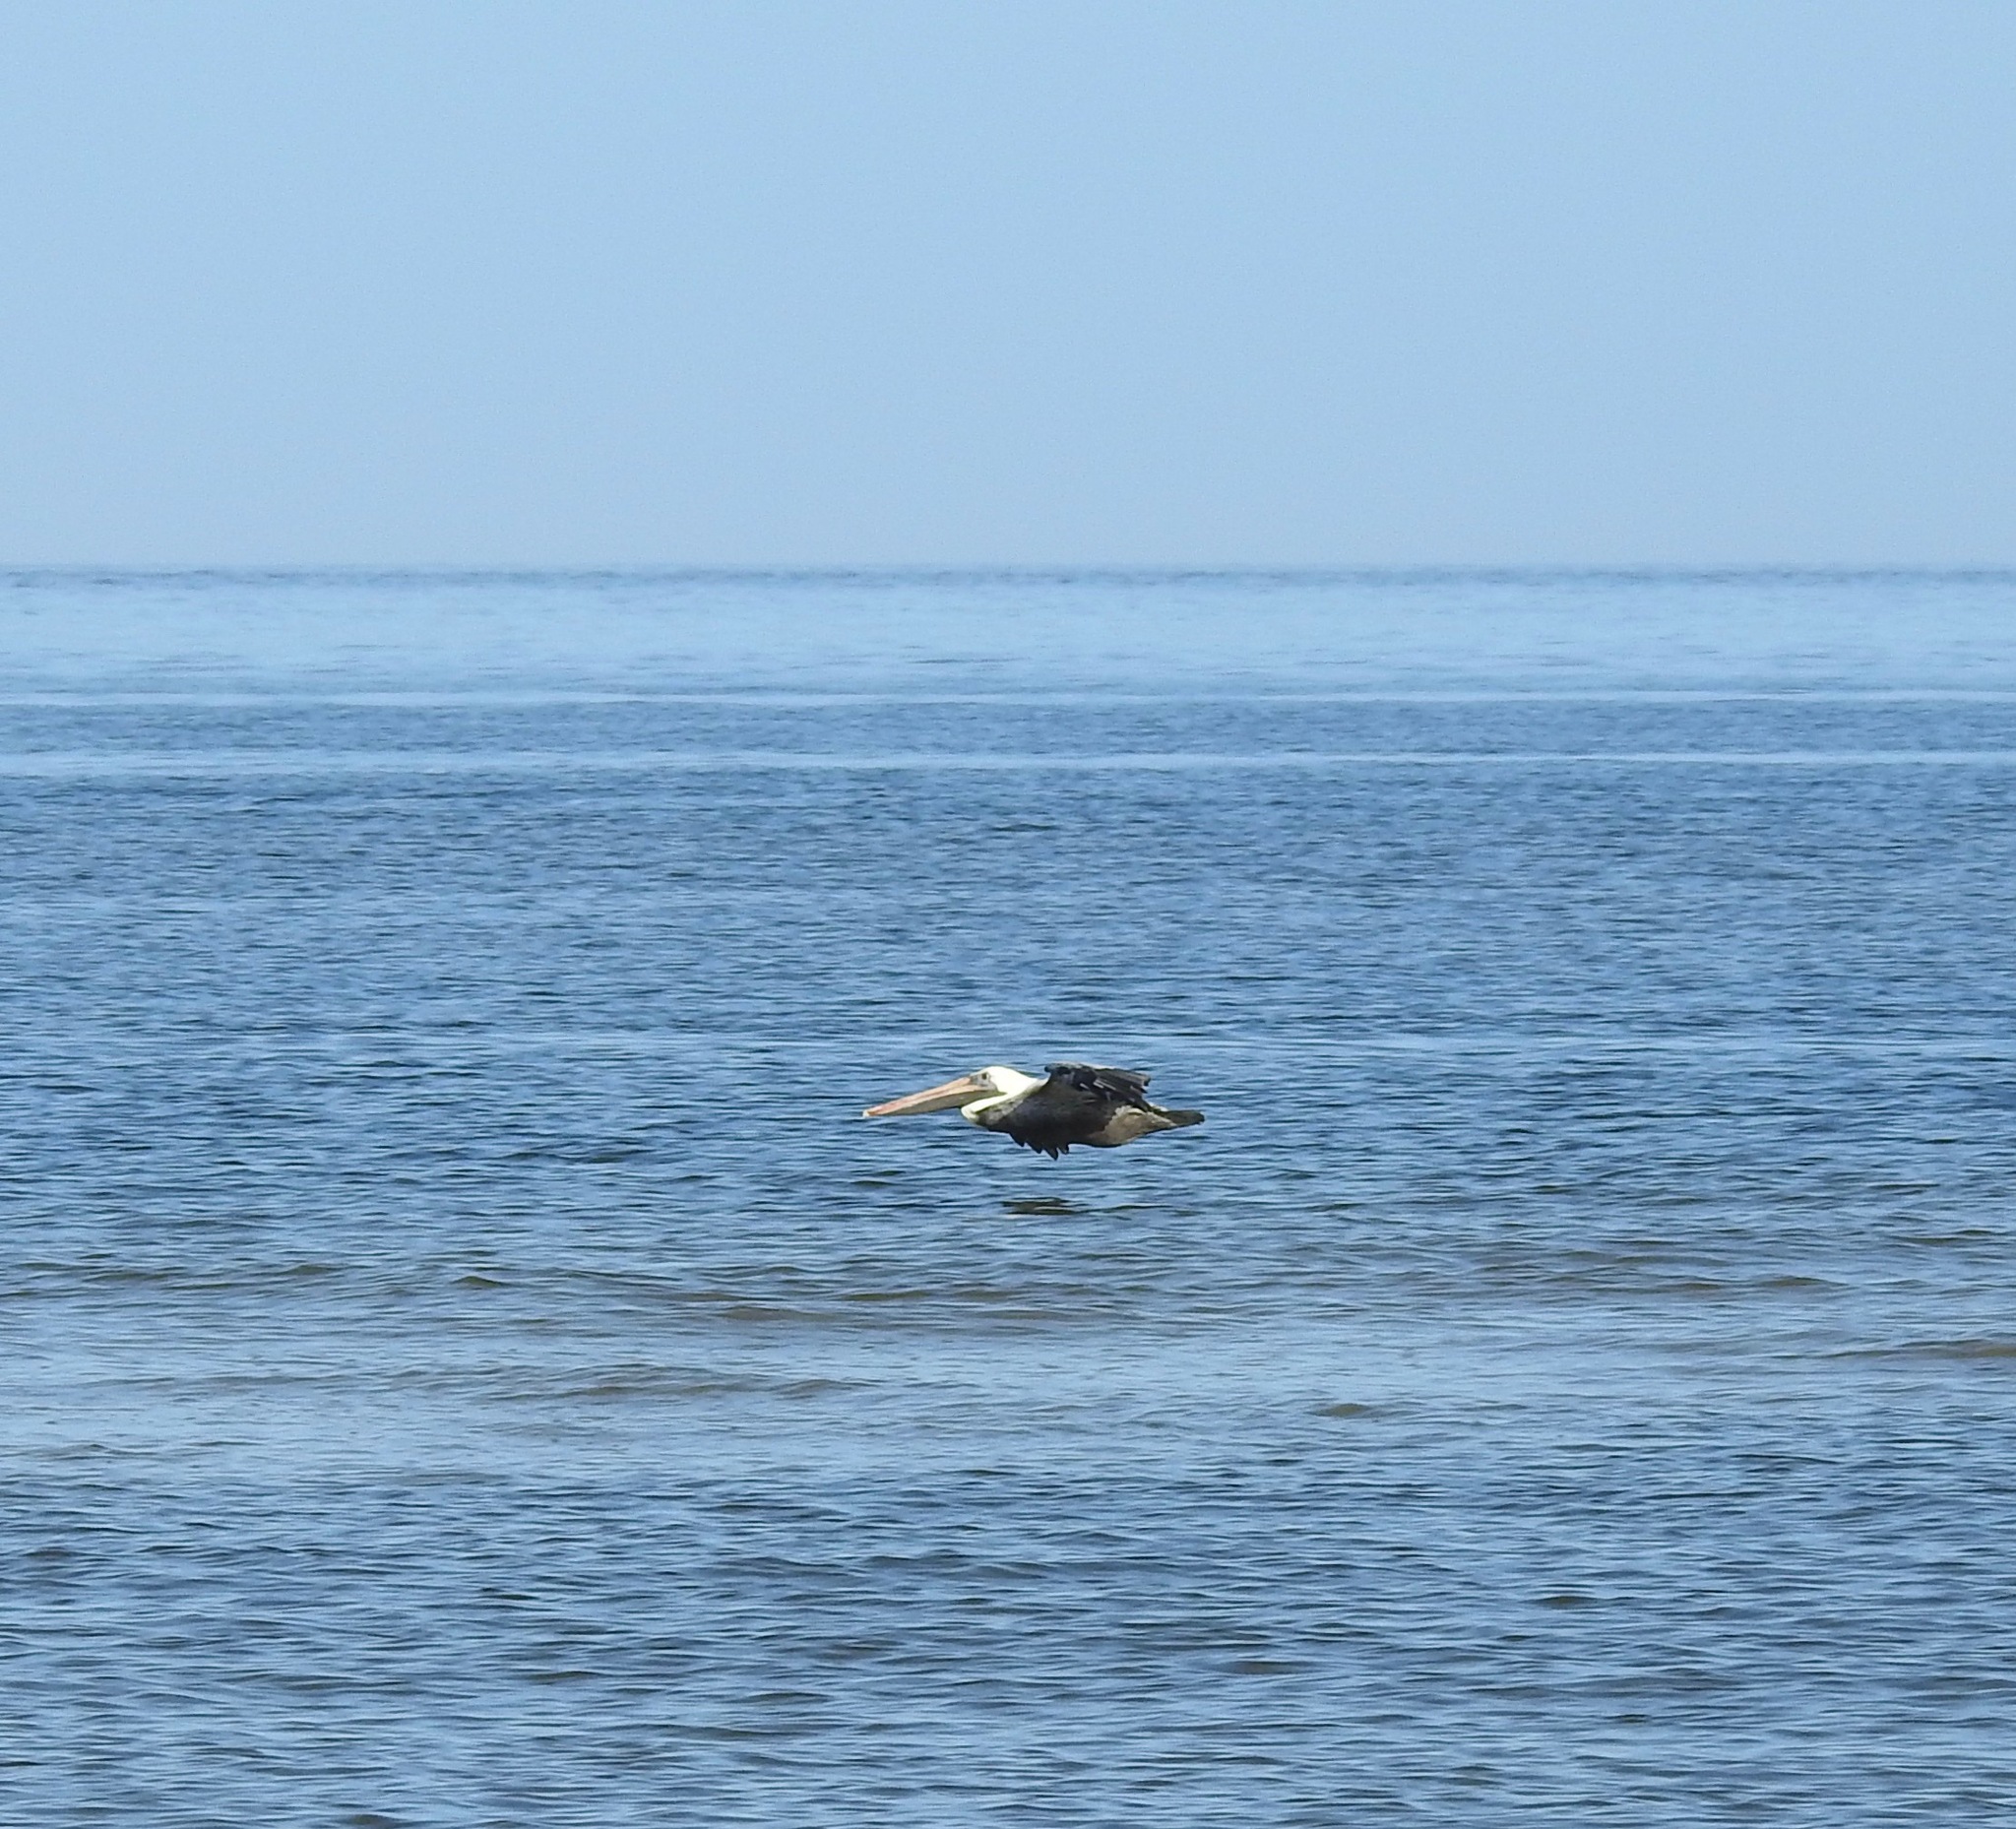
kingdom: Animalia
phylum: Chordata
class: Aves
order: Pelecaniformes
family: Pelecanidae
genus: Pelecanus
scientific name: Pelecanus occidentalis
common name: Brown pelican
